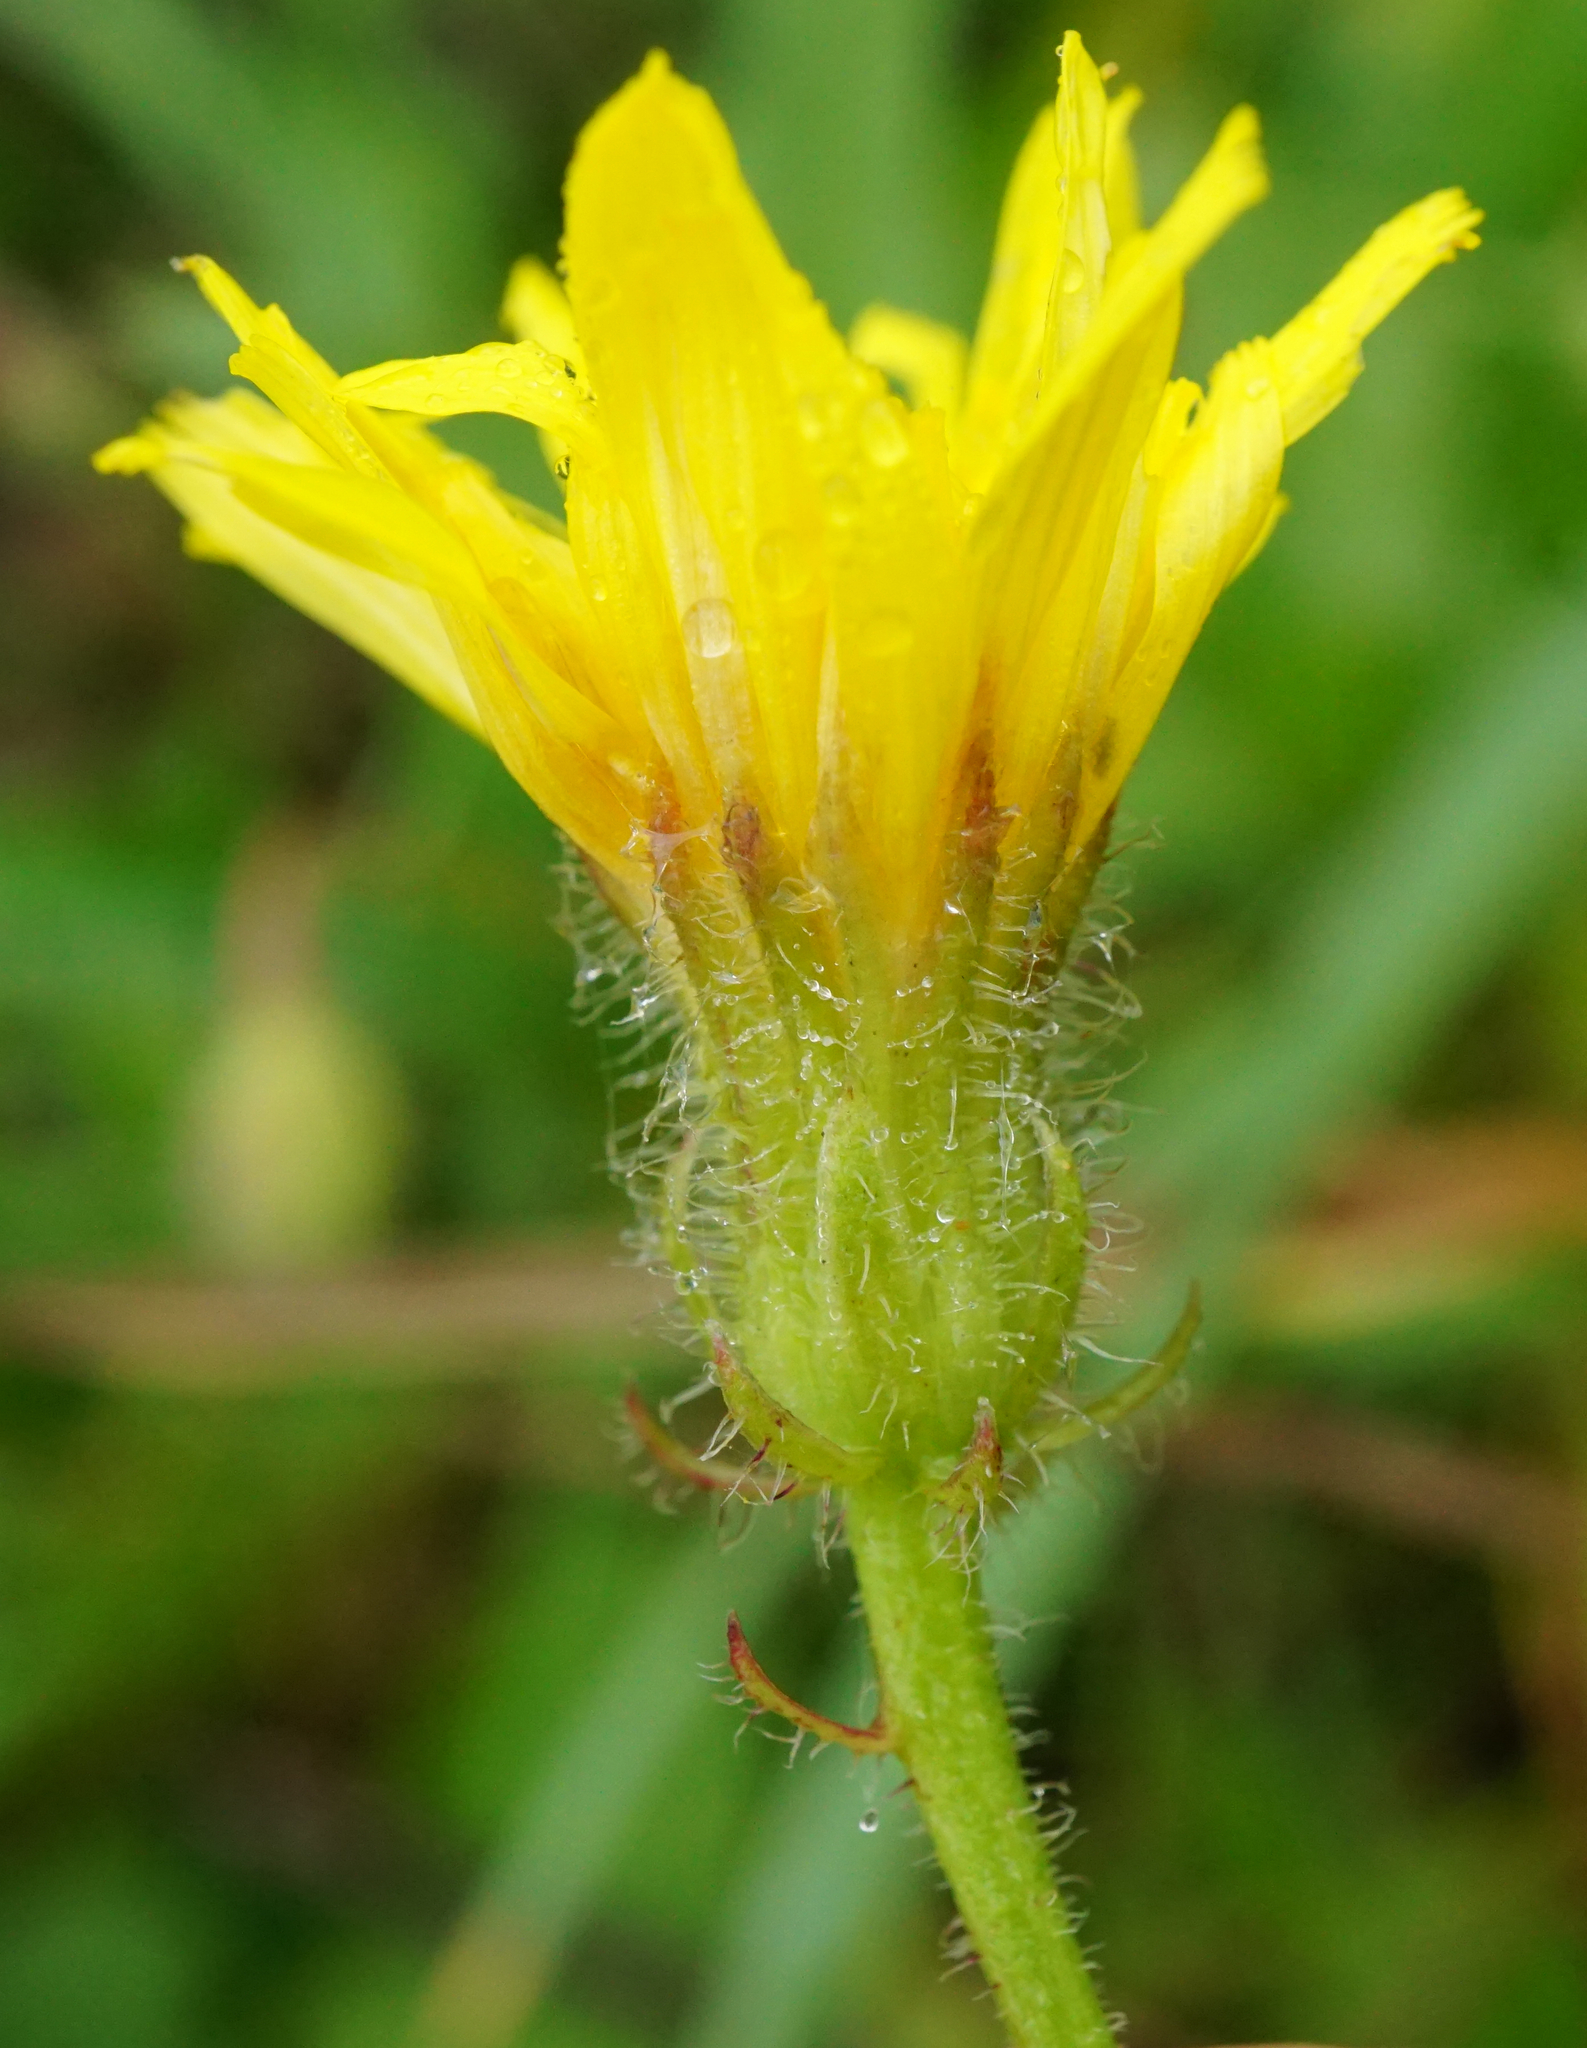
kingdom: Plantae
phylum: Tracheophyta
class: Magnoliopsida
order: Asterales
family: Asteraceae
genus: Crepis
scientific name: Crepis foetida
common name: Stinking hawk's-beard
